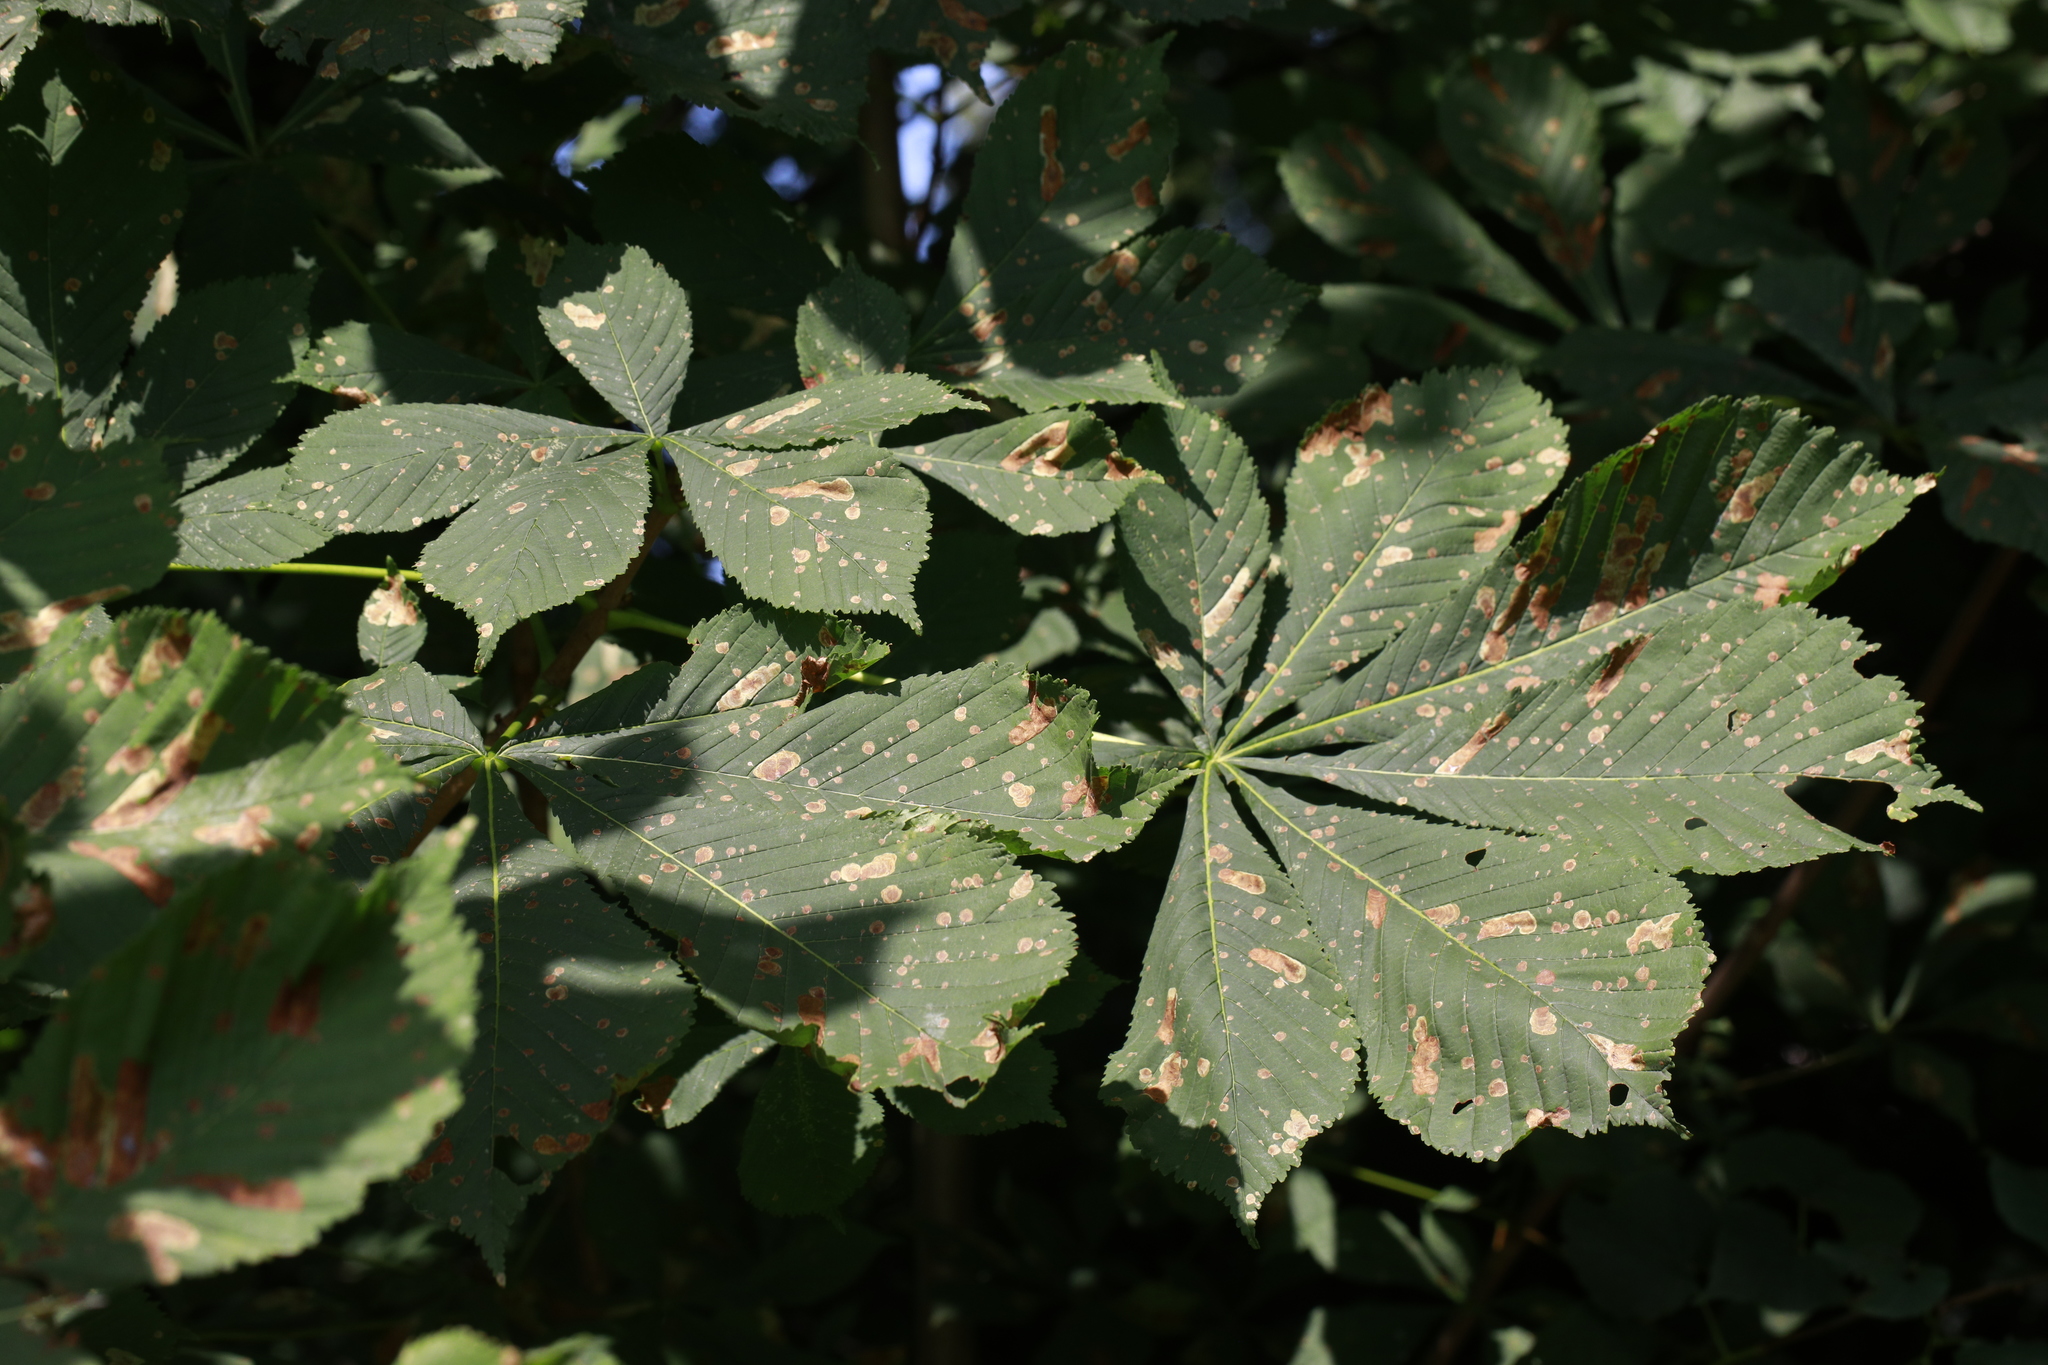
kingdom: Animalia
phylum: Arthropoda
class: Insecta
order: Lepidoptera
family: Gracillariidae
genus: Cameraria
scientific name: Cameraria ohridella
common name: Horse-chestnut leaf-miner
